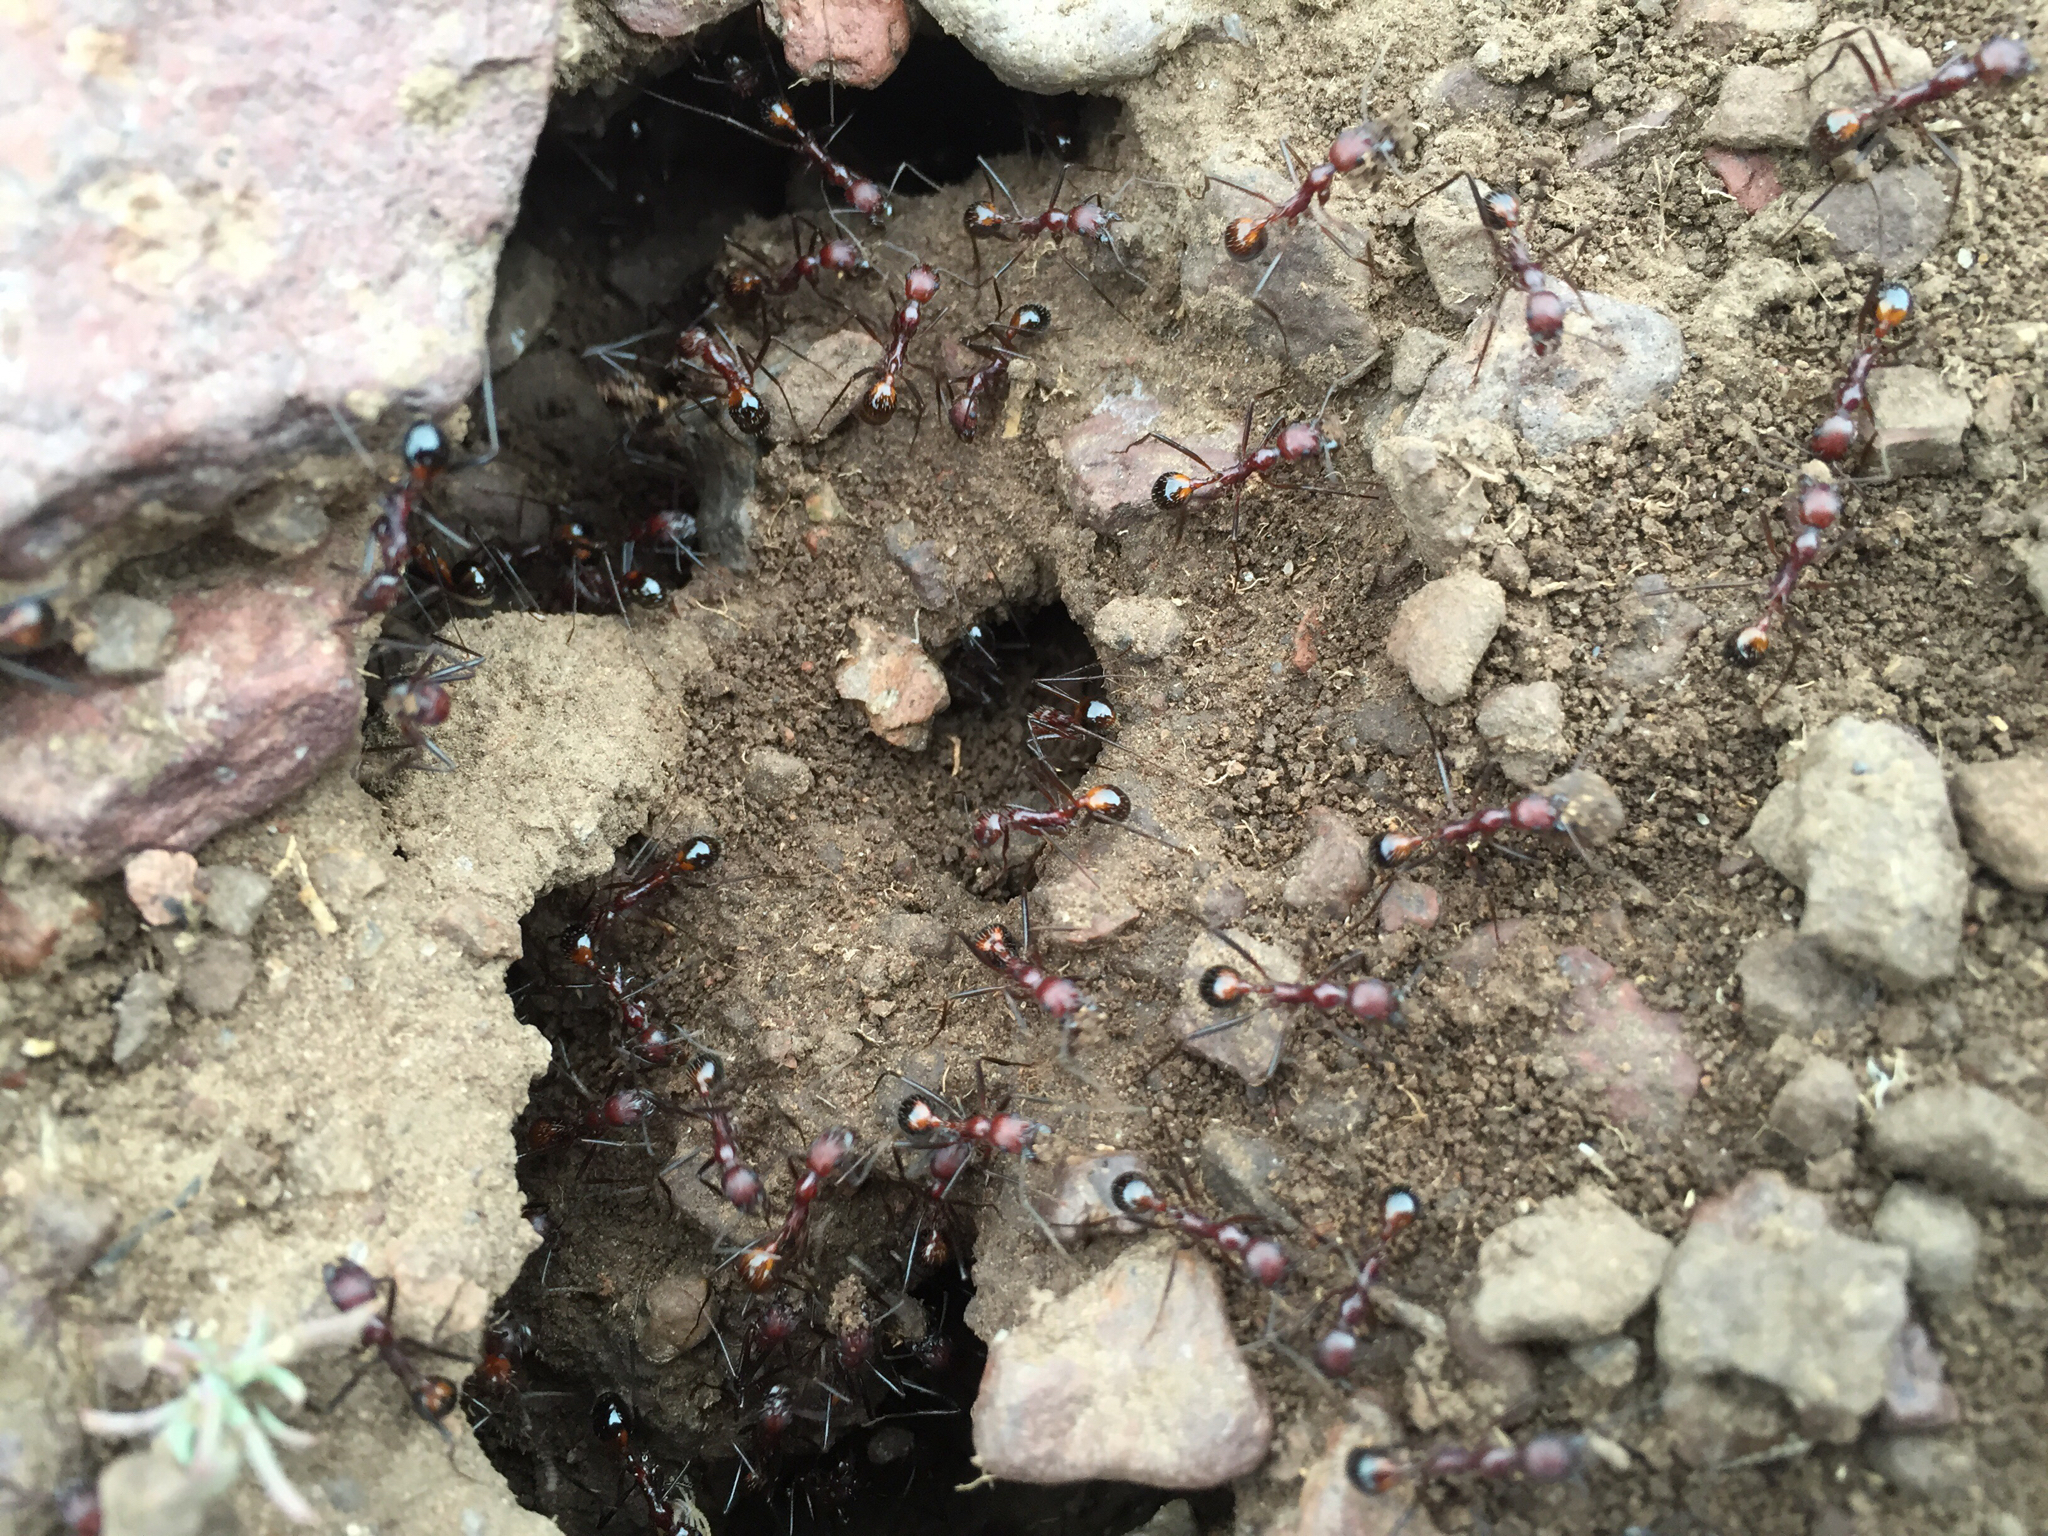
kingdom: Animalia
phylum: Arthropoda
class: Insecta
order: Hymenoptera
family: Formicidae
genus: Novomessor
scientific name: Novomessor cockerelli
